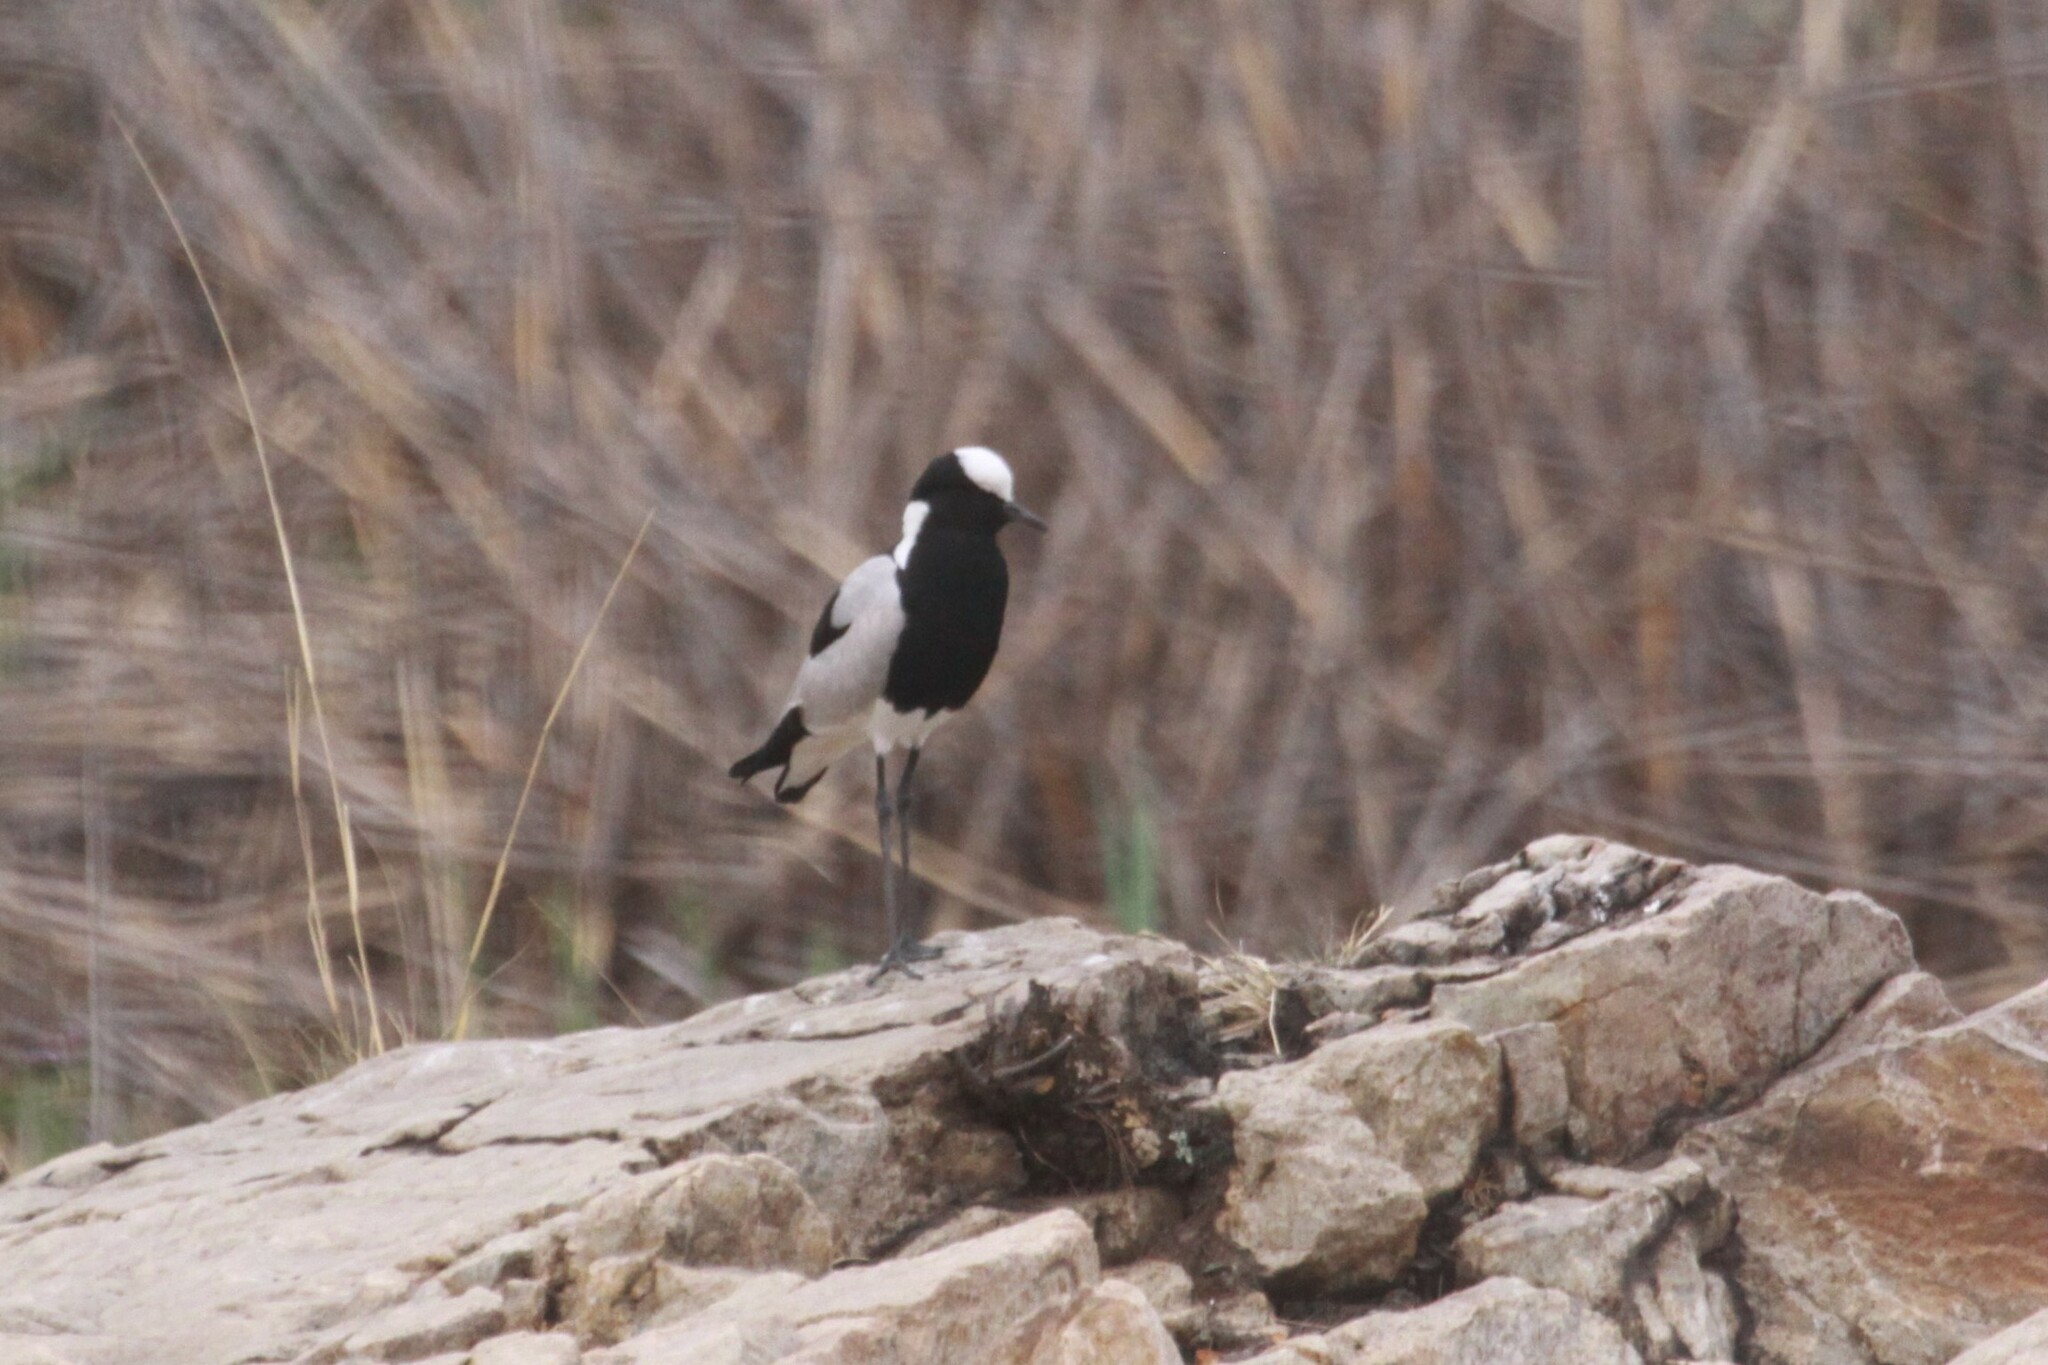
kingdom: Animalia
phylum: Chordata
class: Aves
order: Charadriiformes
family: Charadriidae
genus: Vanellus
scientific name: Vanellus armatus
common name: Blacksmith lapwing
